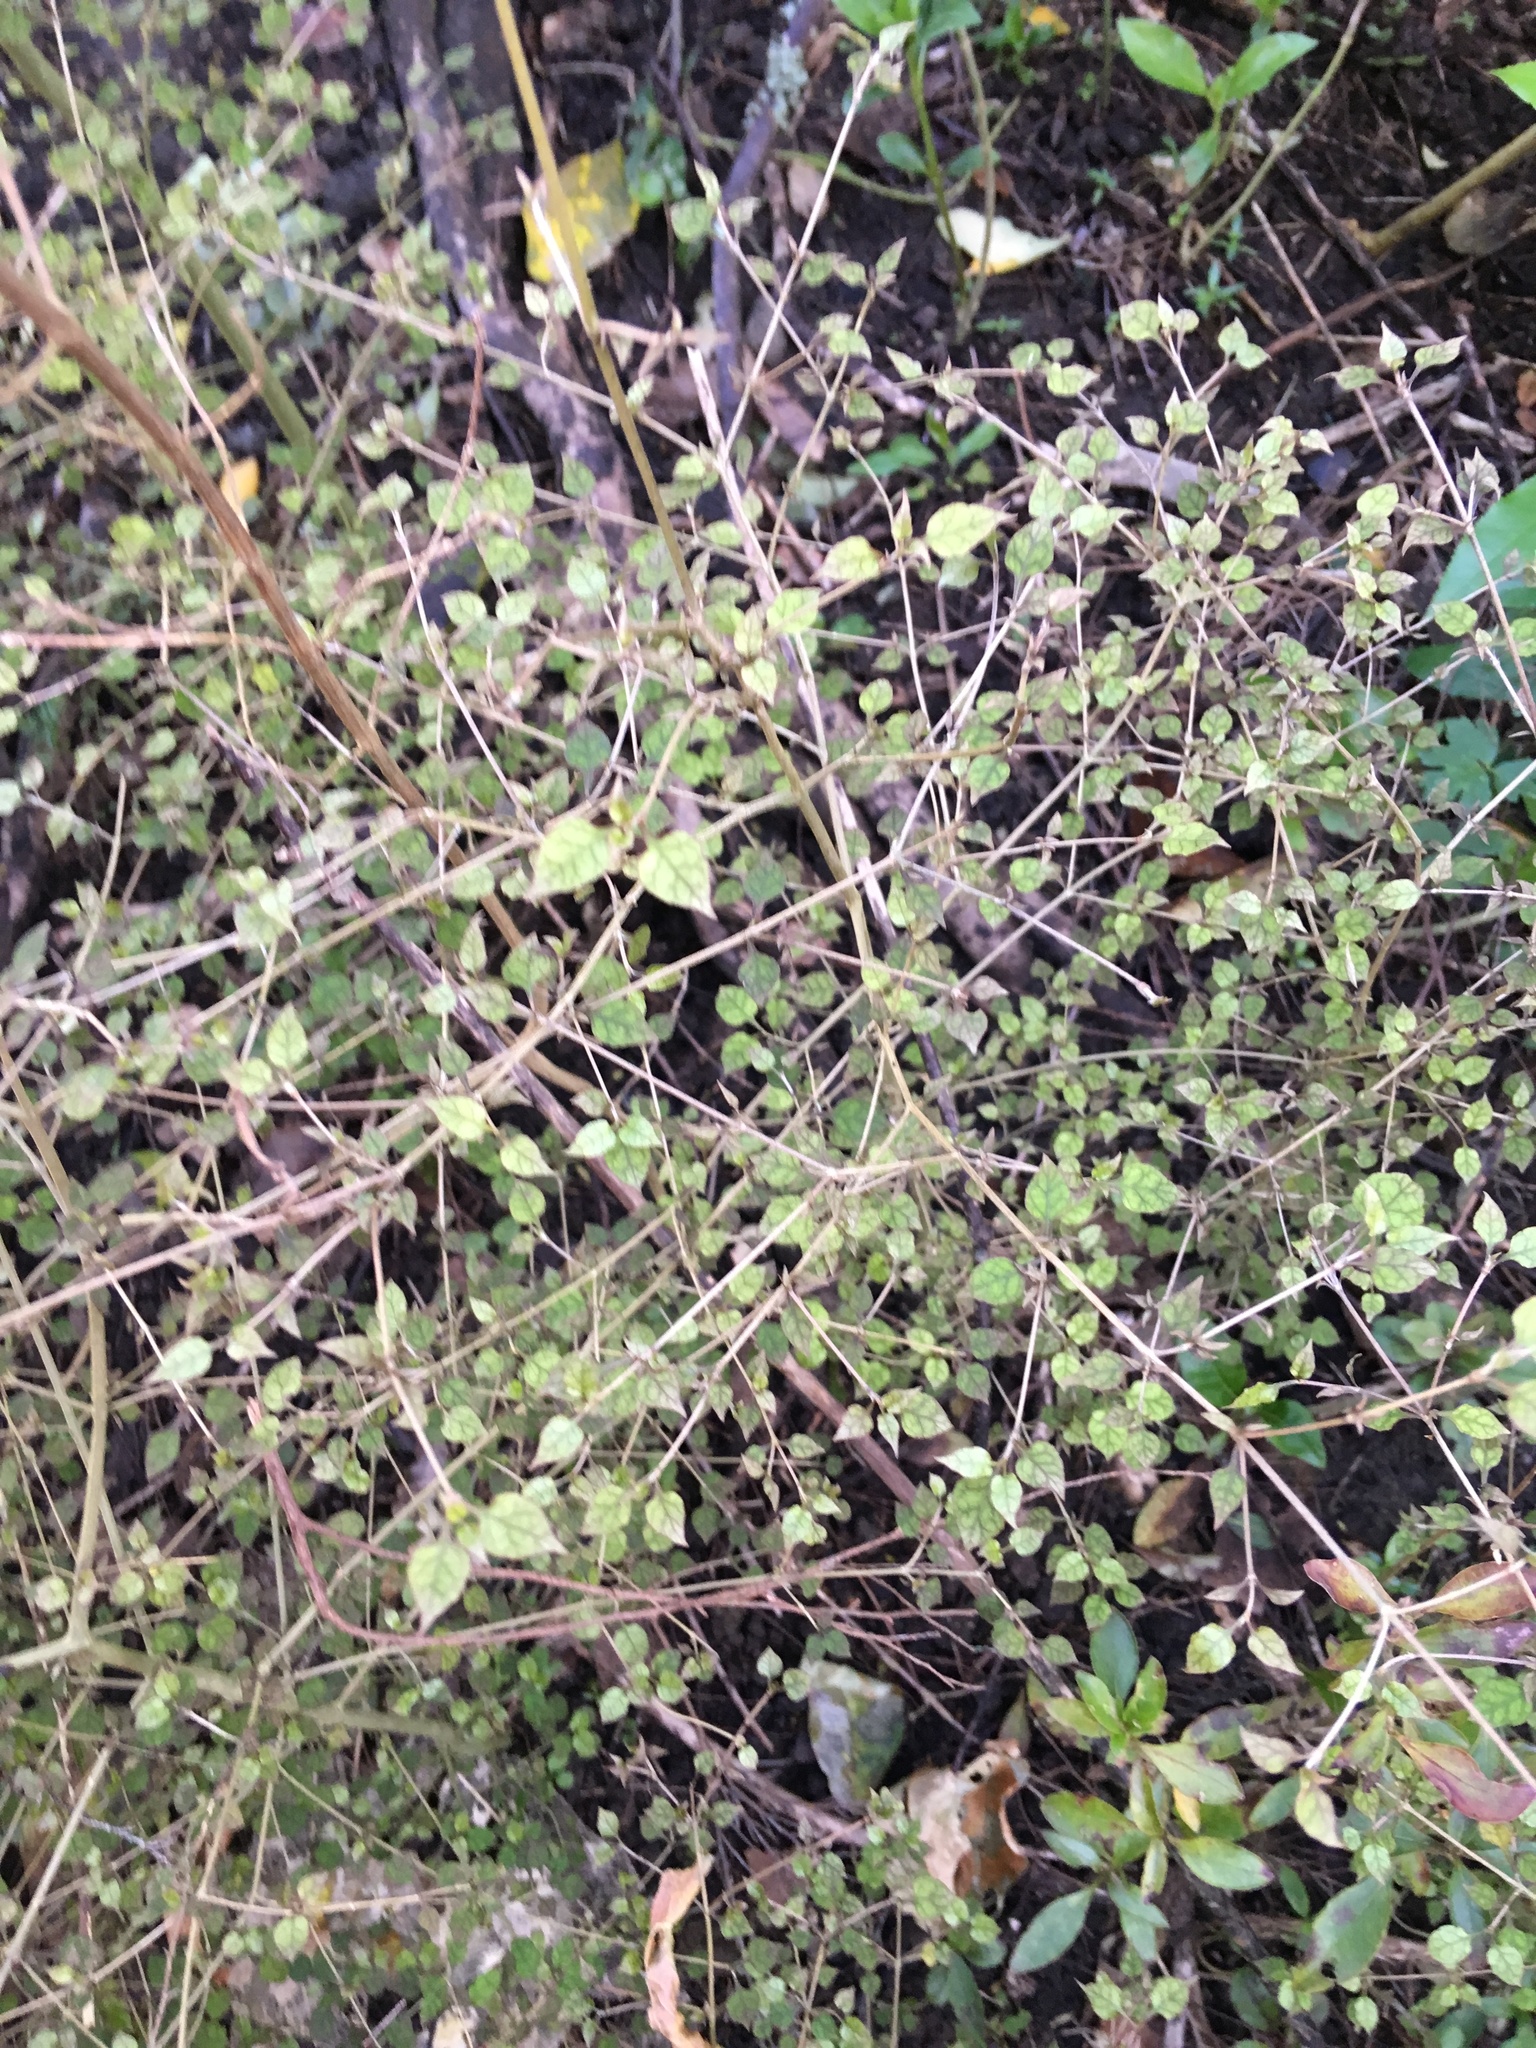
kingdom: Plantae
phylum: Tracheophyta
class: Magnoliopsida
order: Gentianales
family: Rubiaceae
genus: Coprosma
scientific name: Coprosma areolata
